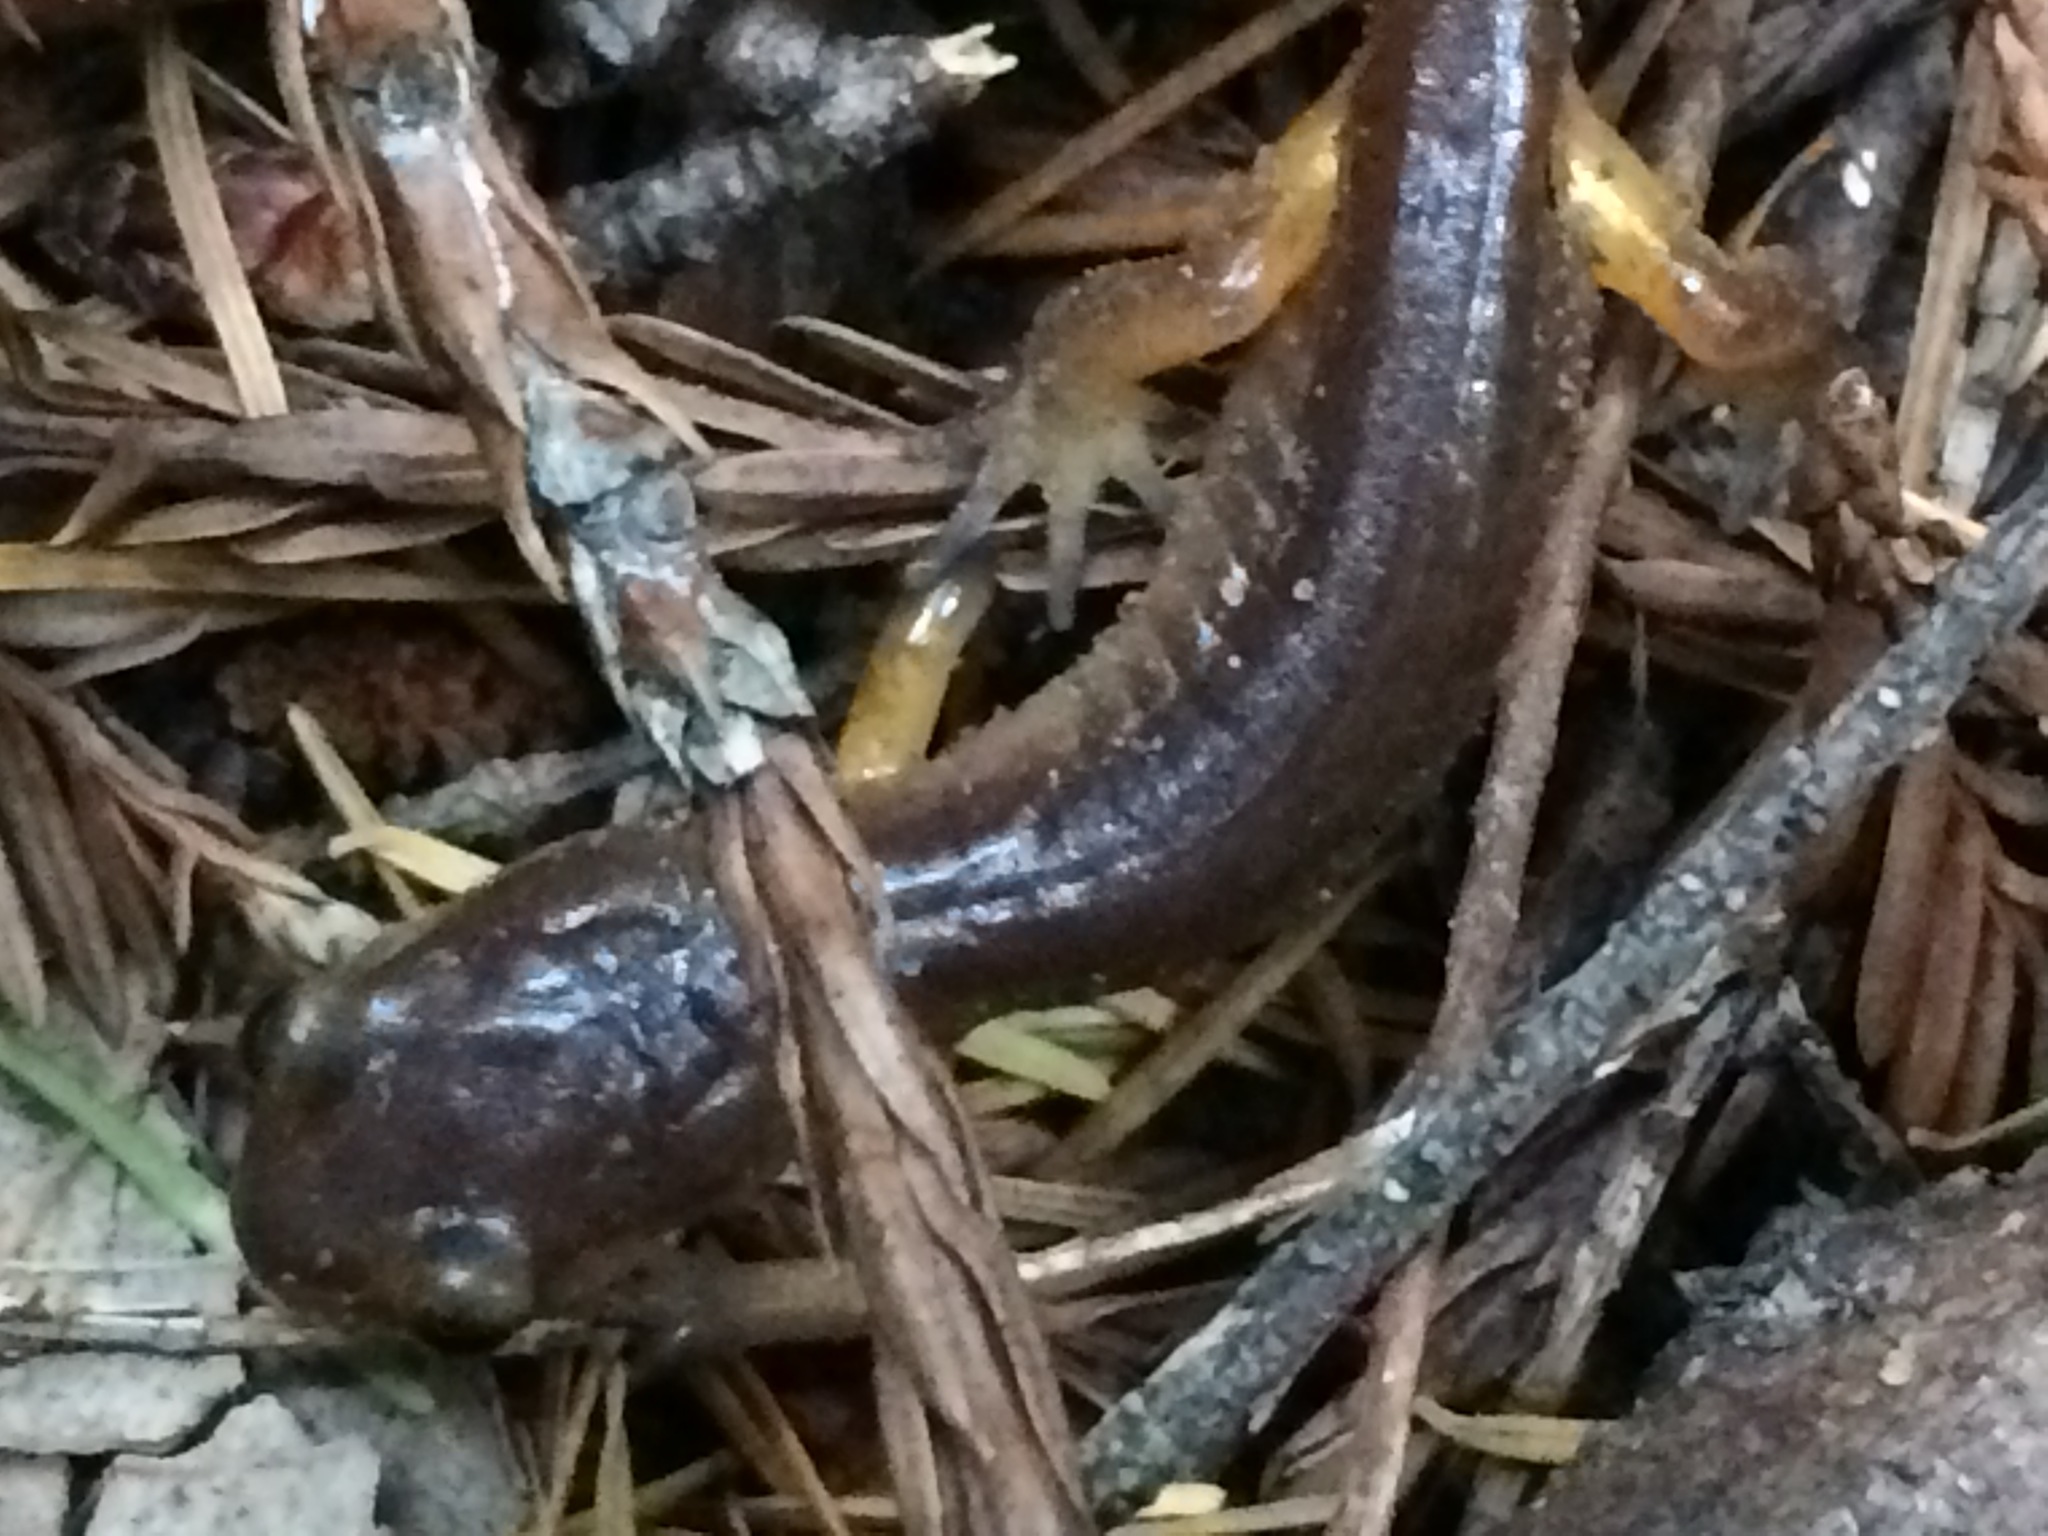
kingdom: Animalia
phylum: Chordata
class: Amphibia
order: Caudata
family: Plethodontidae
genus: Ensatina
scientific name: Ensatina eschscholtzii
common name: Ensatina
